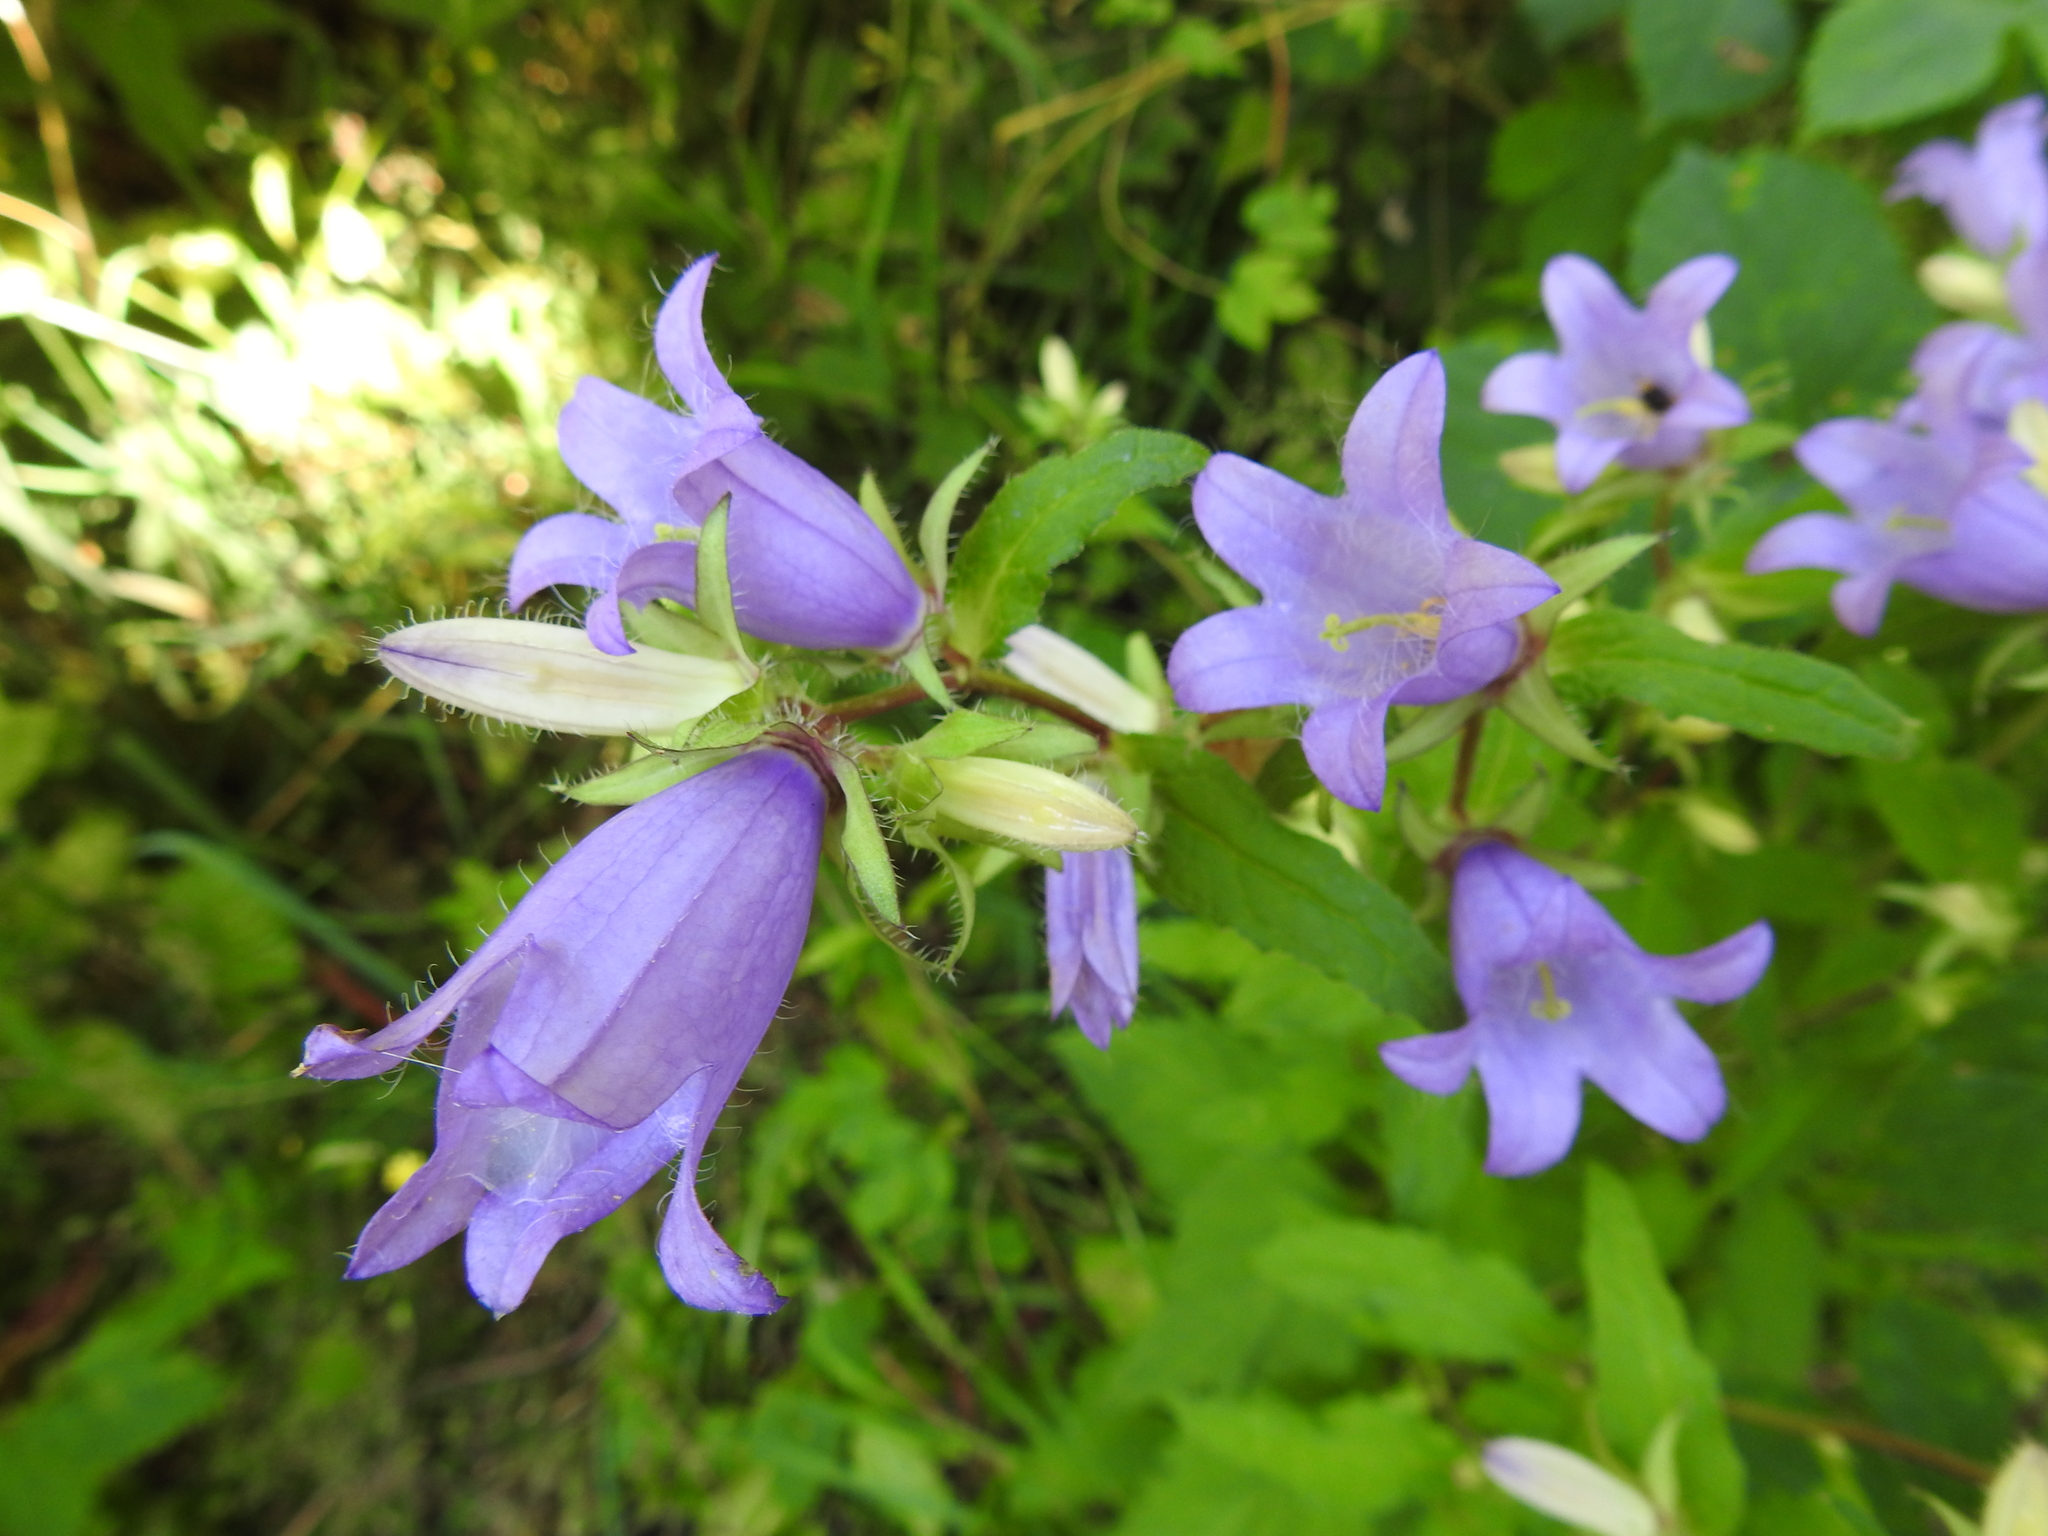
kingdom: Plantae
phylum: Tracheophyta
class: Magnoliopsida
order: Asterales
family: Campanulaceae
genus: Campanula
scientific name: Campanula trachelium
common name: Nettle-leaved bellflower
